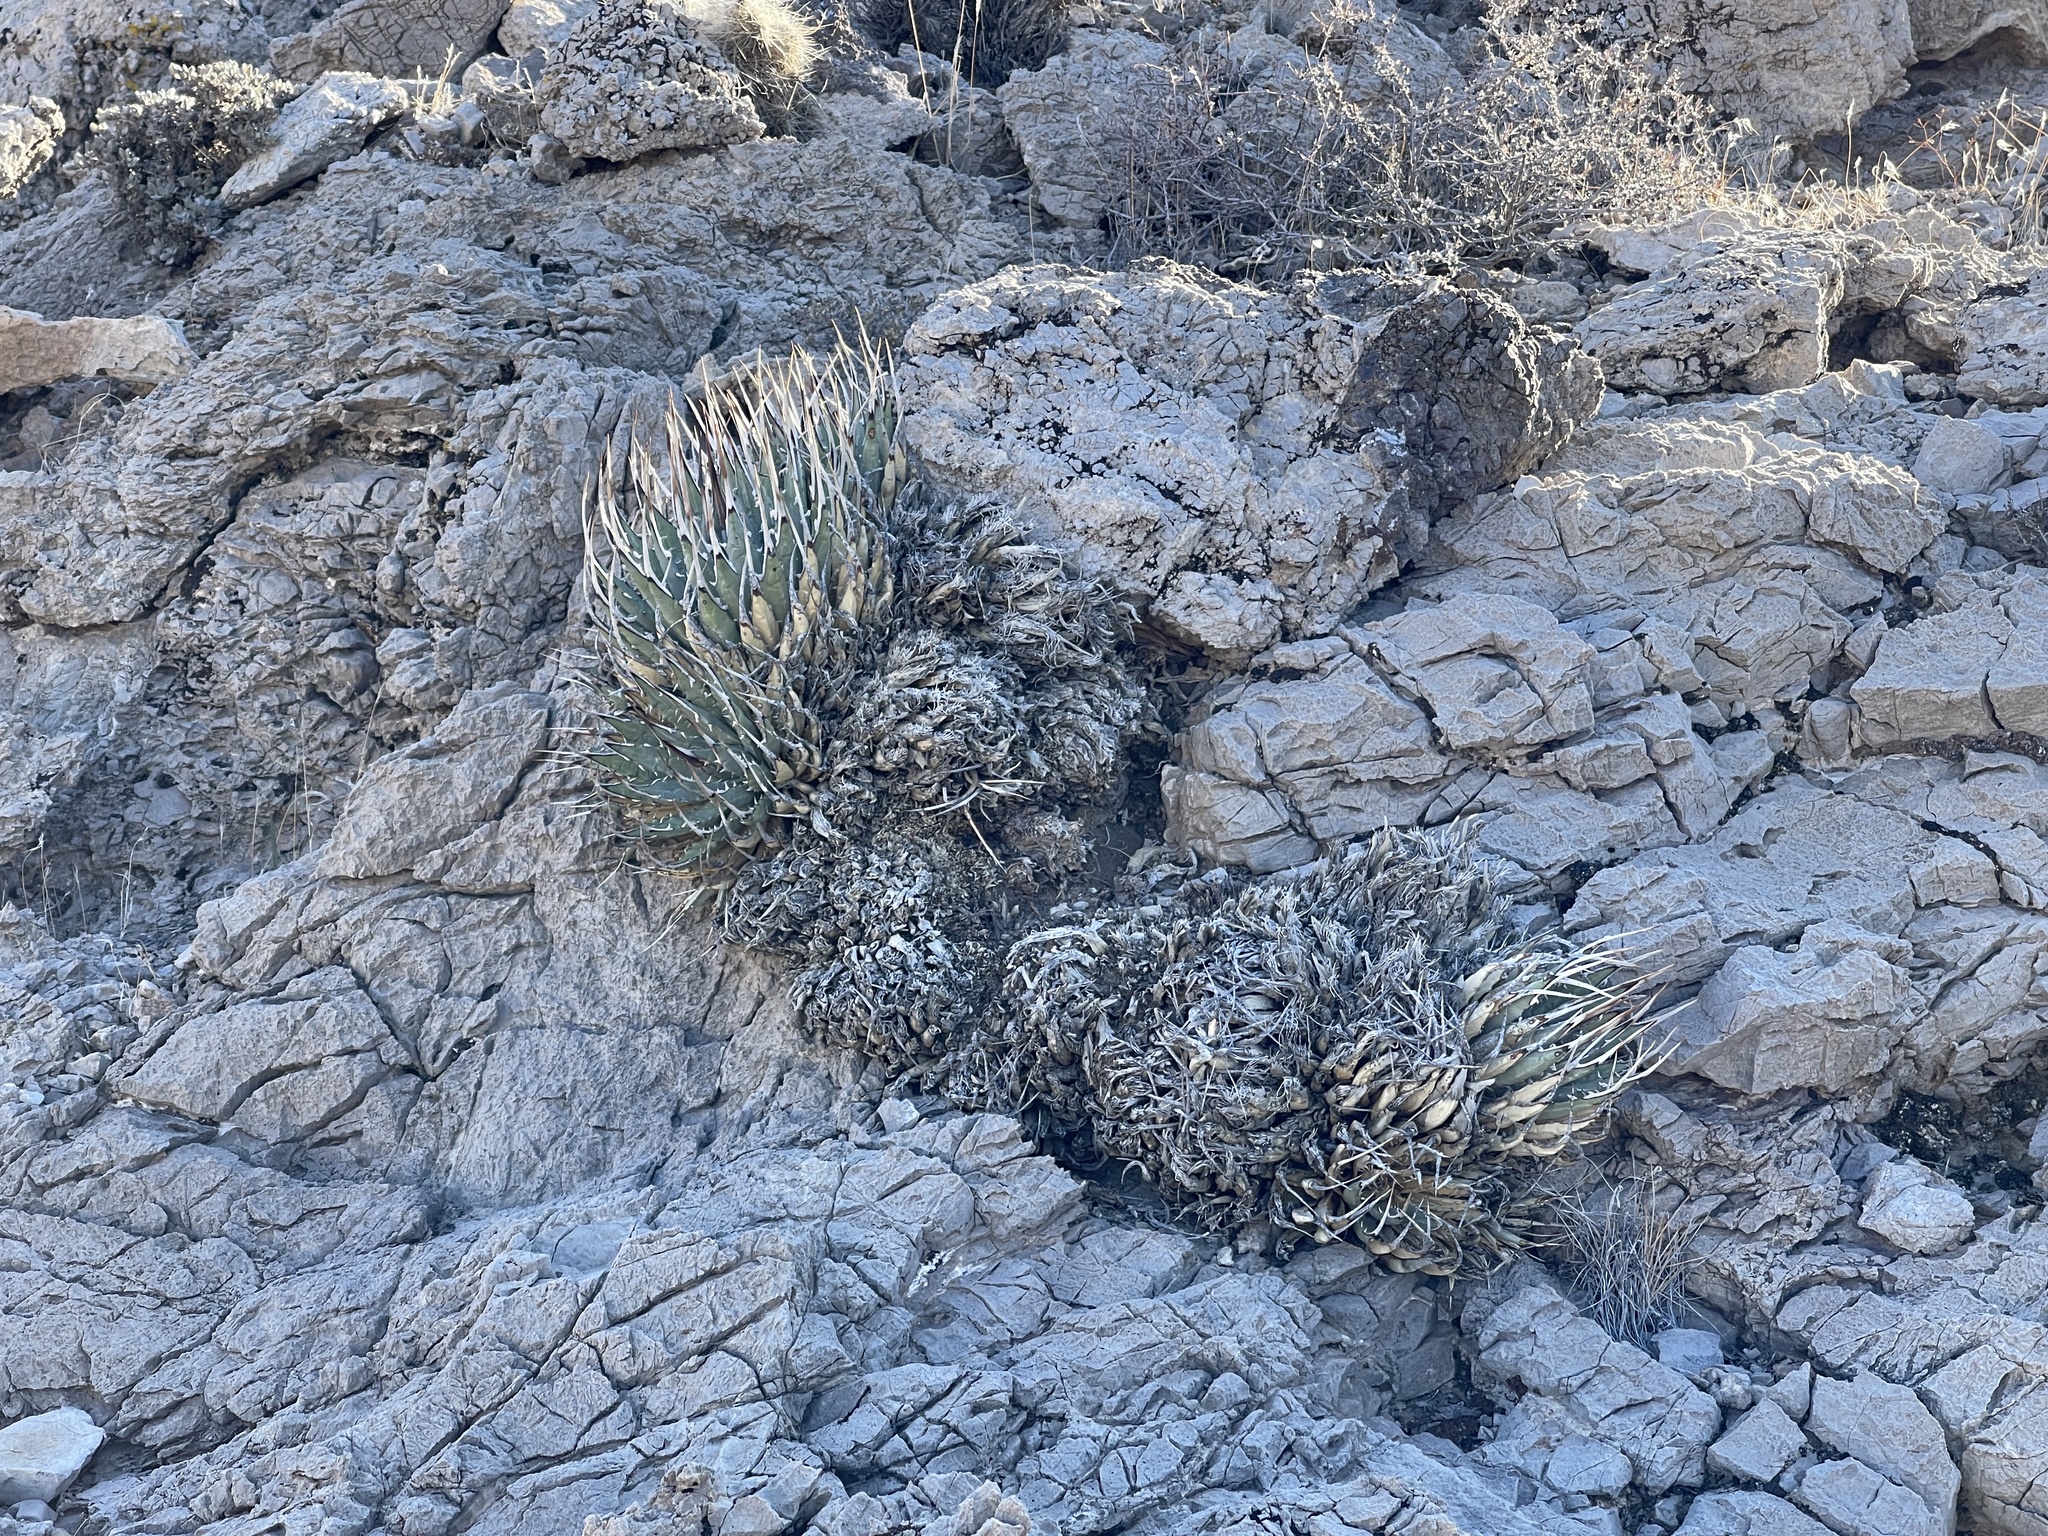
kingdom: Plantae
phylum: Tracheophyta
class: Liliopsida
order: Asparagales
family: Asparagaceae
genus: Agave
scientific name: Agave utahensis
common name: Utah agave
